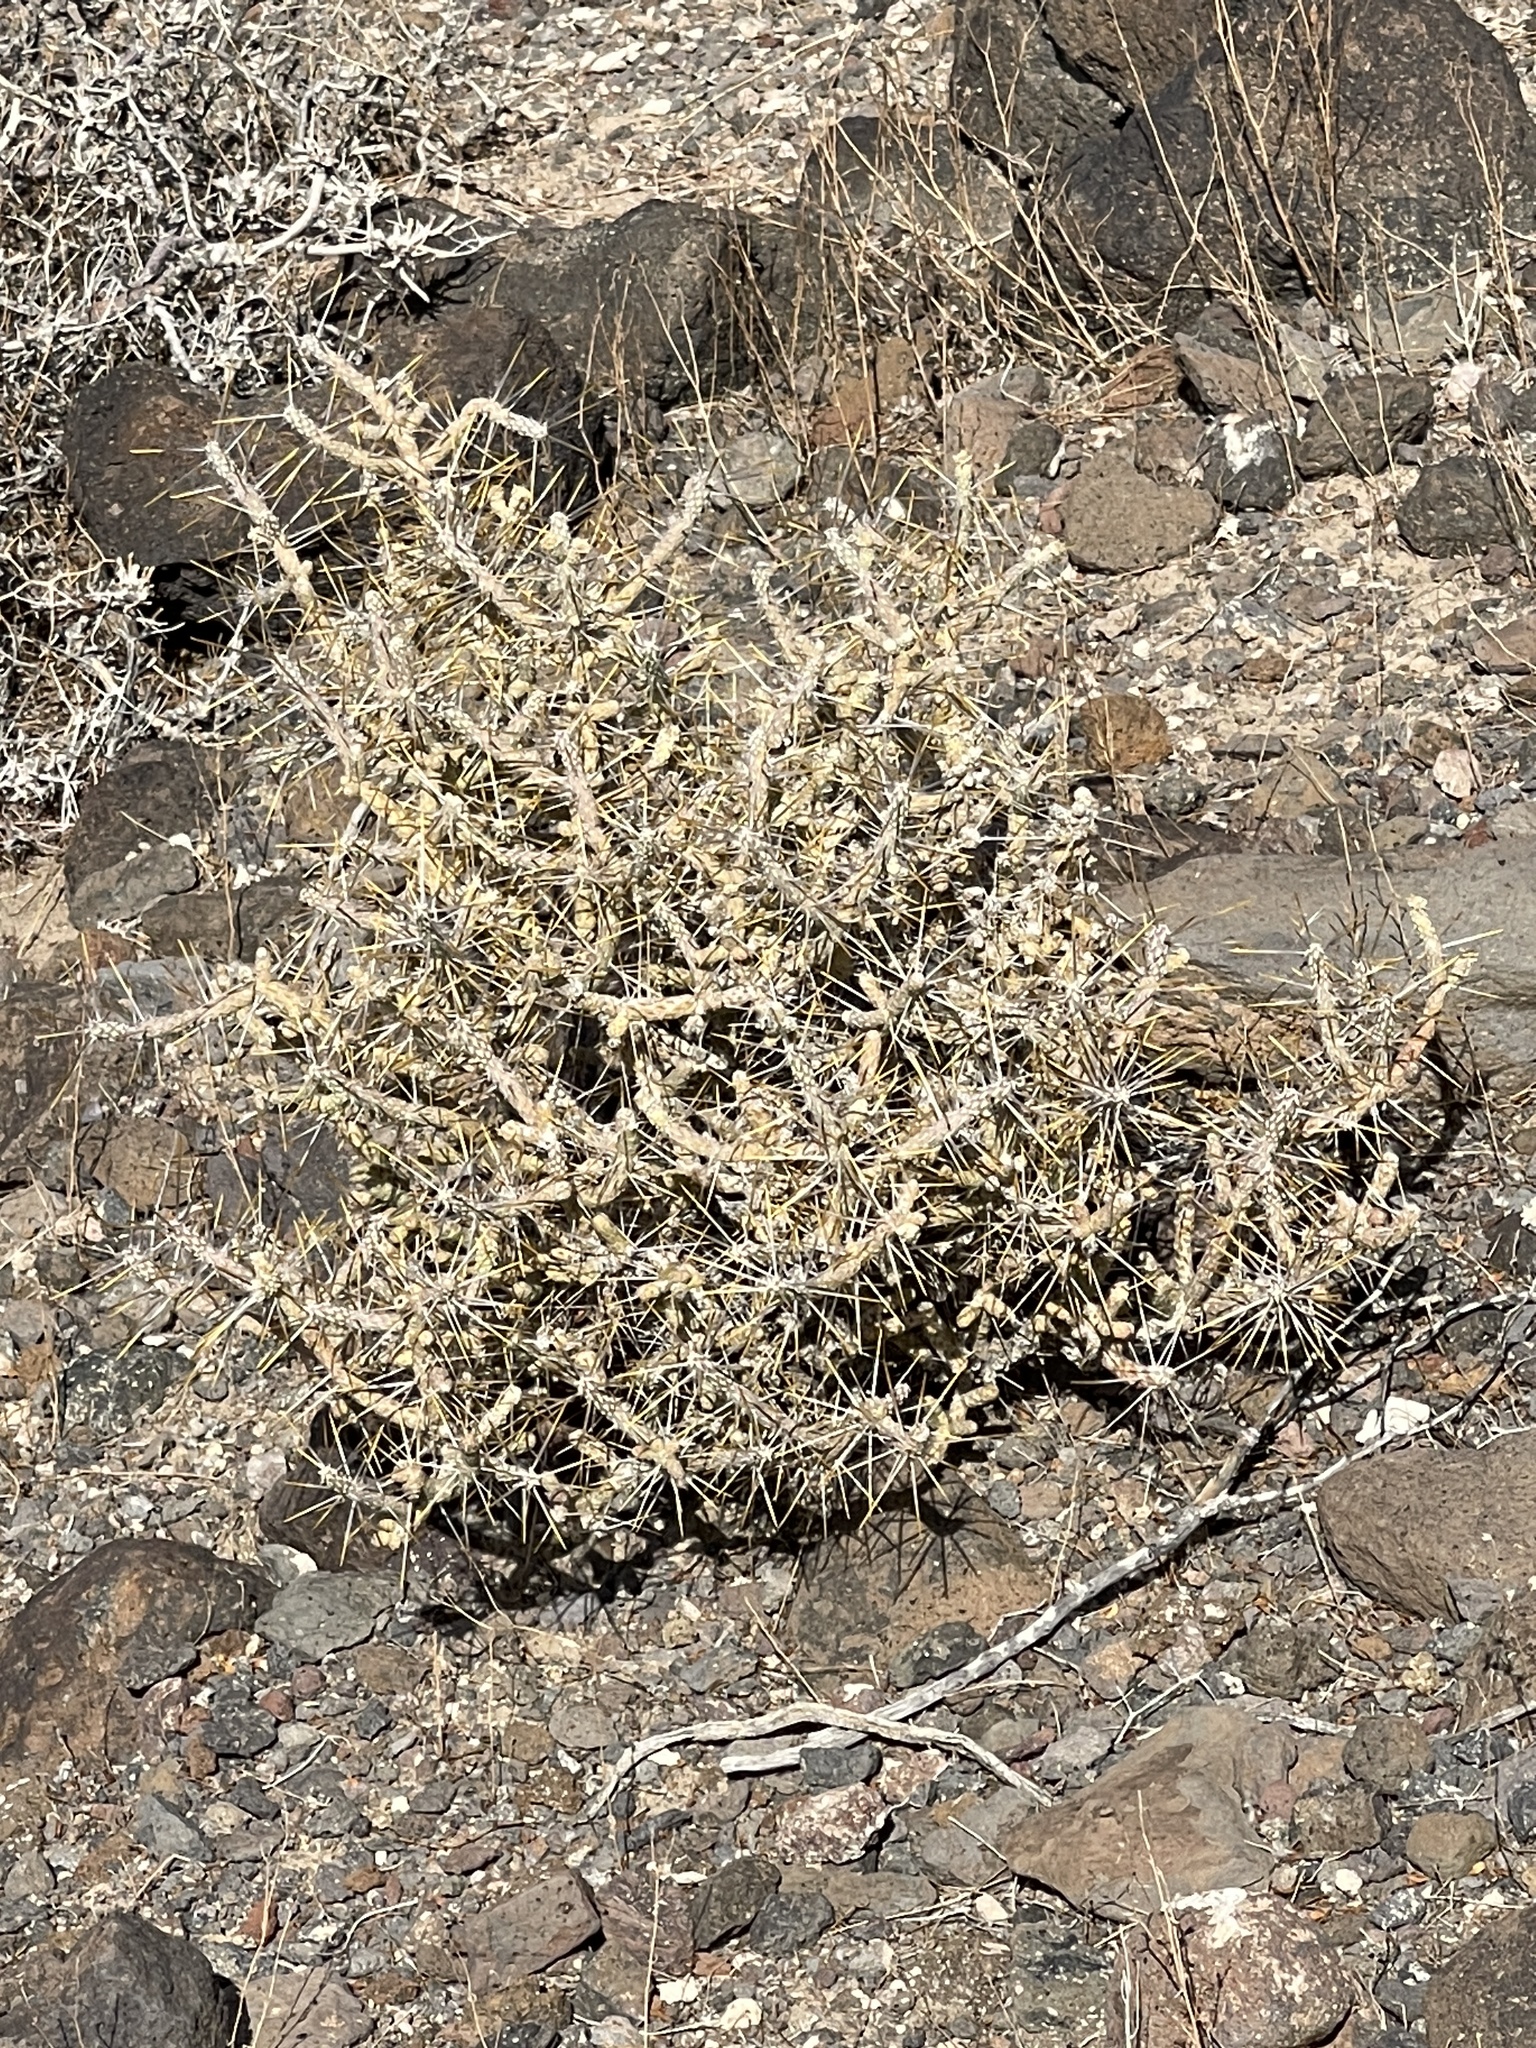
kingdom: Plantae
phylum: Tracheophyta
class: Magnoliopsida
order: Caryophyllales
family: Cactaceae
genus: Cylindropuntia
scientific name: Cylindropuntia ramosissima
